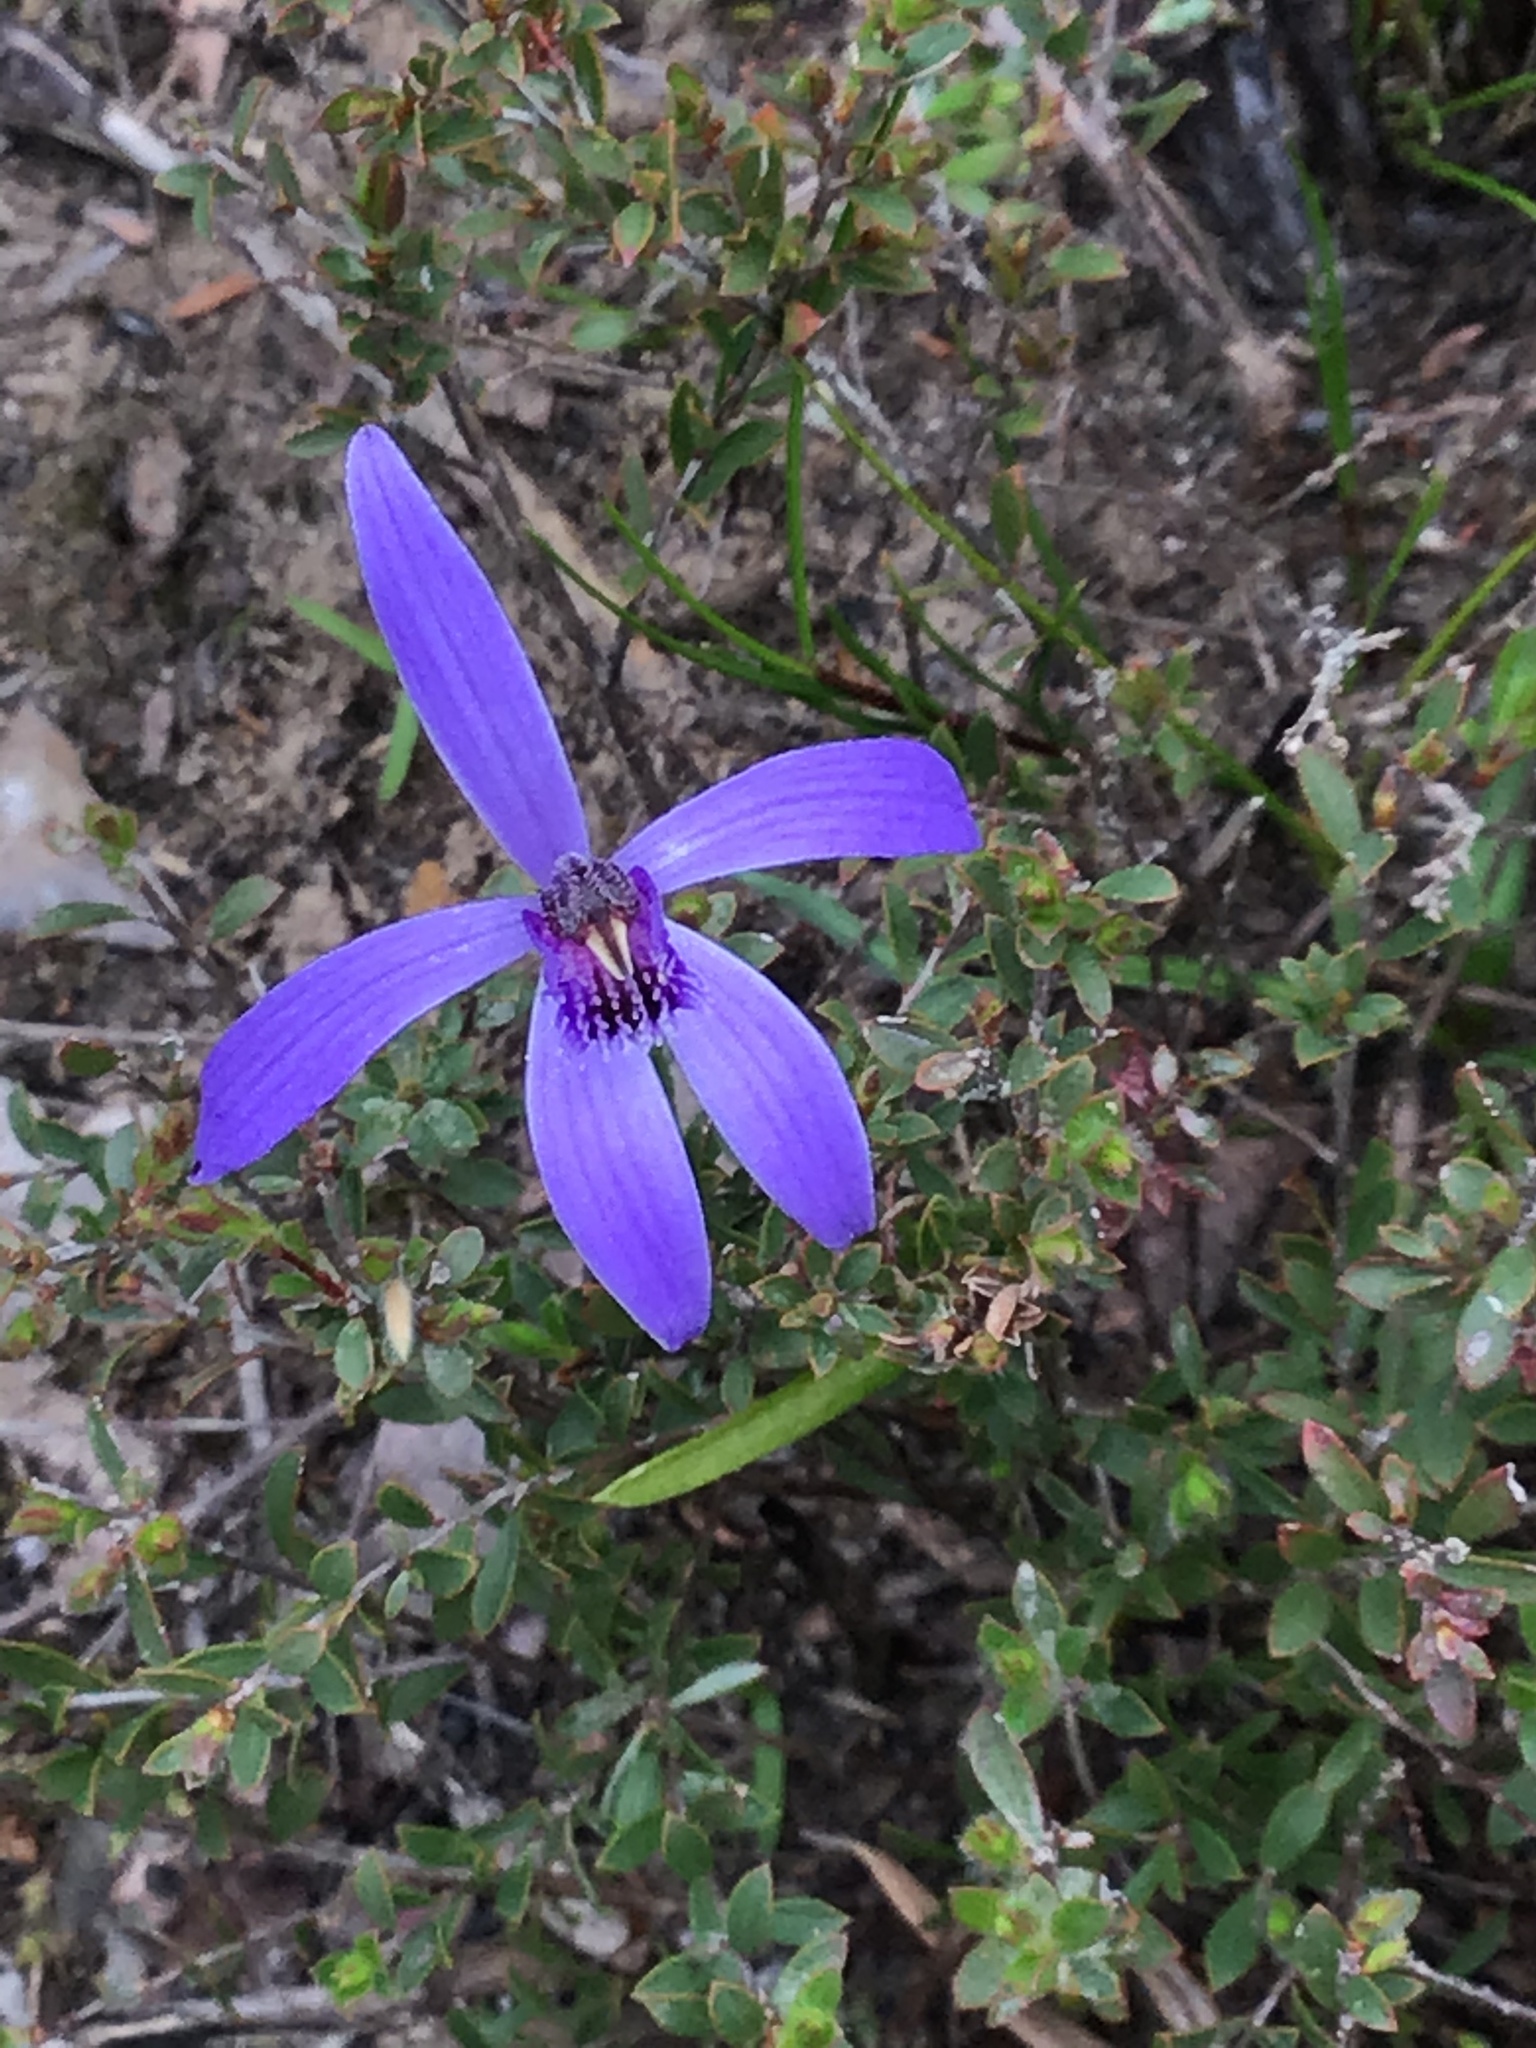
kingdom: Plantae
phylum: Tracheophyta
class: Liliopsida
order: Asparagales
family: Orchidaceae
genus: Pheladenia
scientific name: Pheladenia deformis
